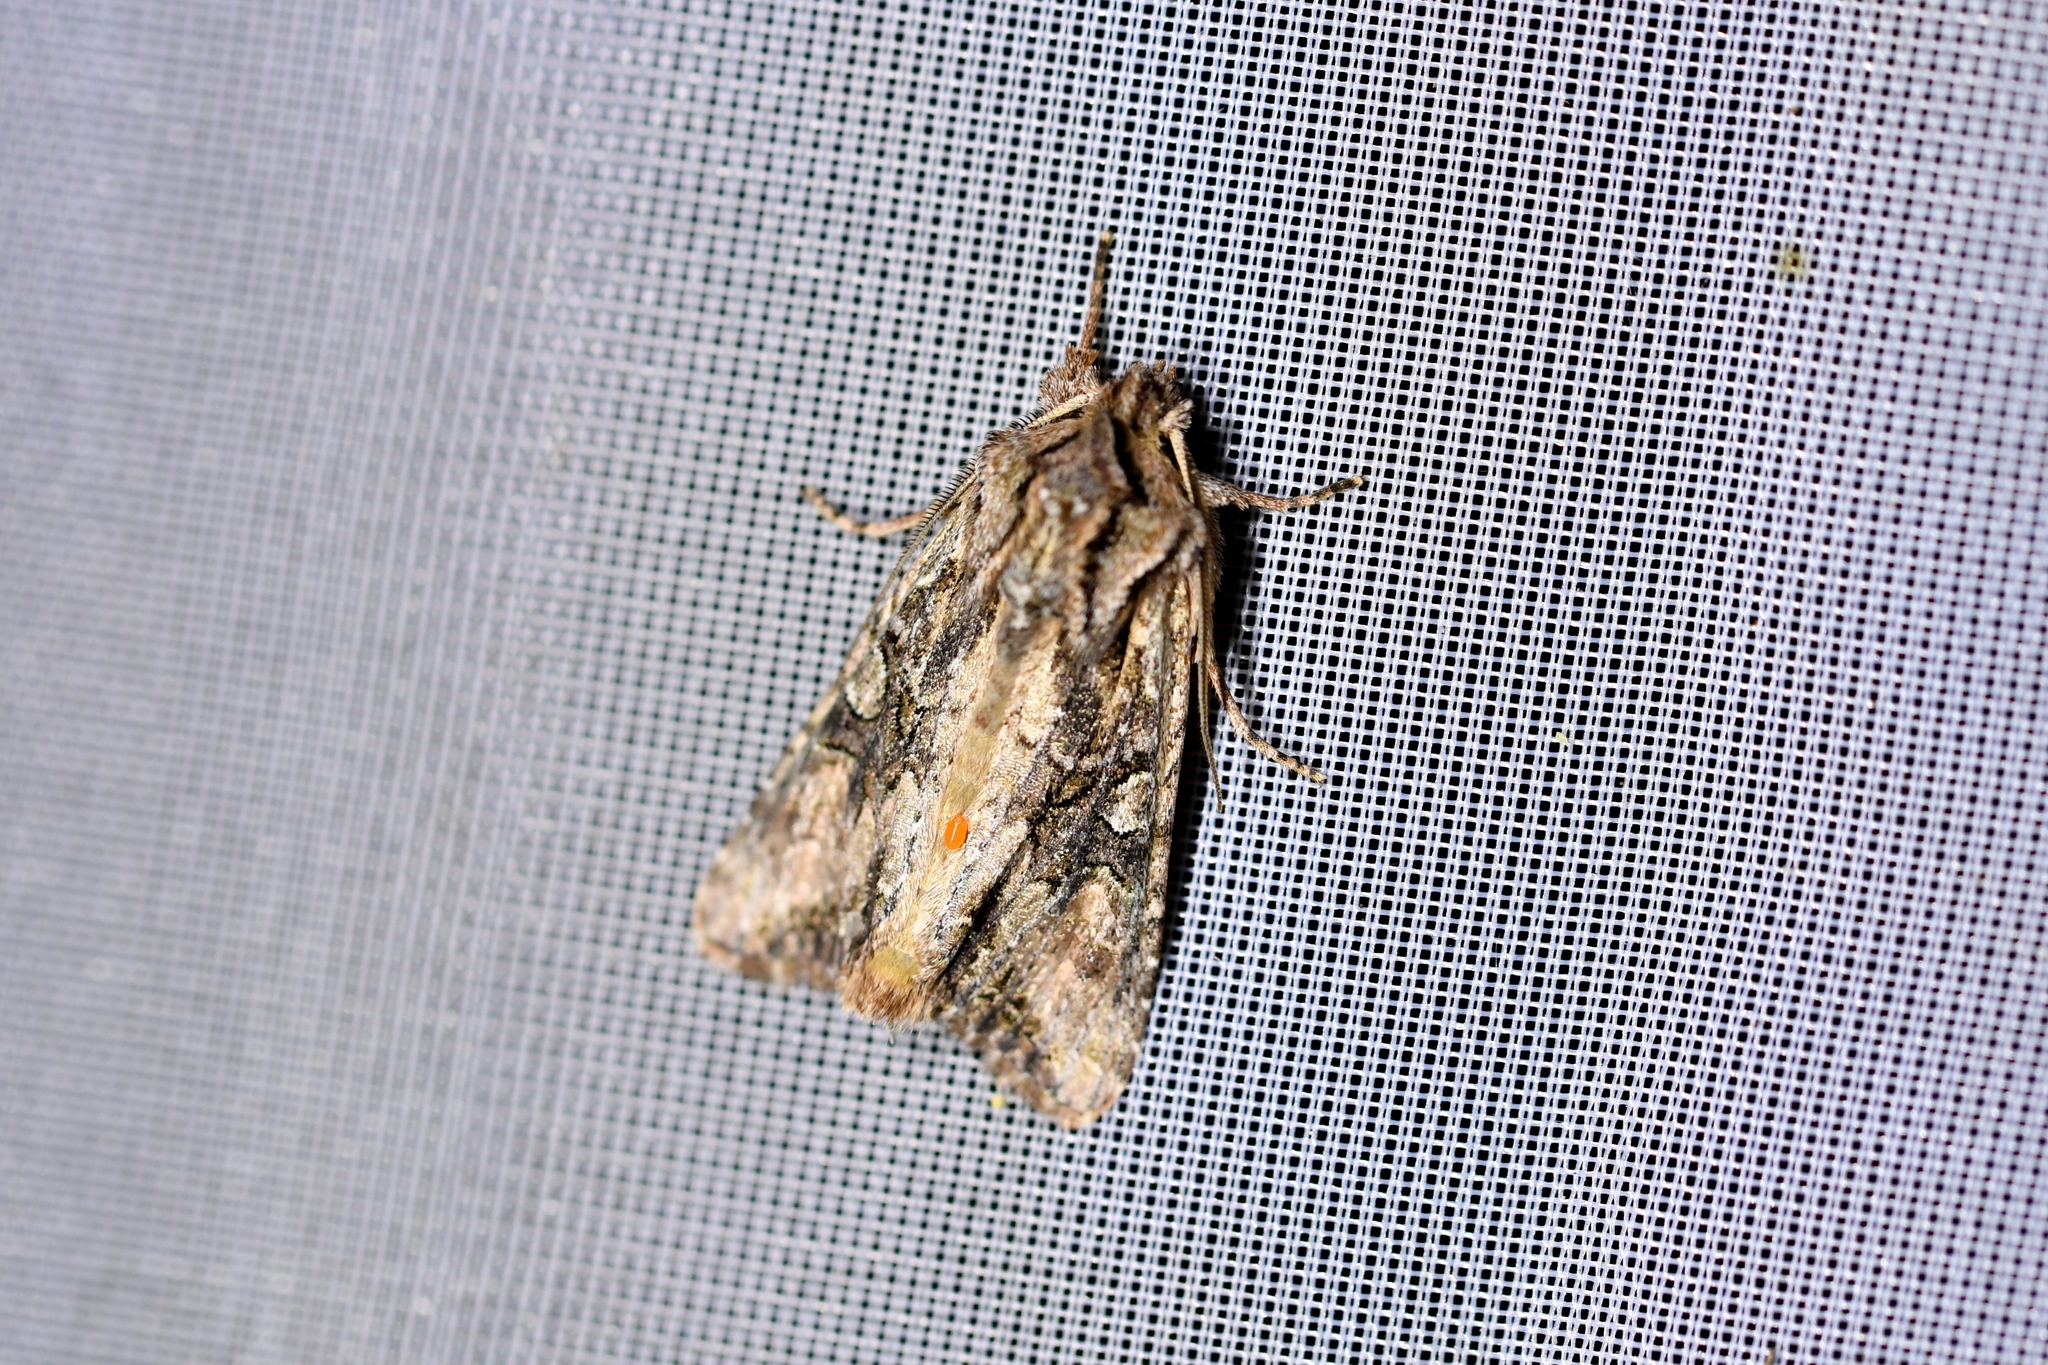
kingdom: Animalia
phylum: Arthropoda
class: Insecta
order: Lepidoptera
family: Noctuidae
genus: Ichneutica
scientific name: Ichneutica mutans
